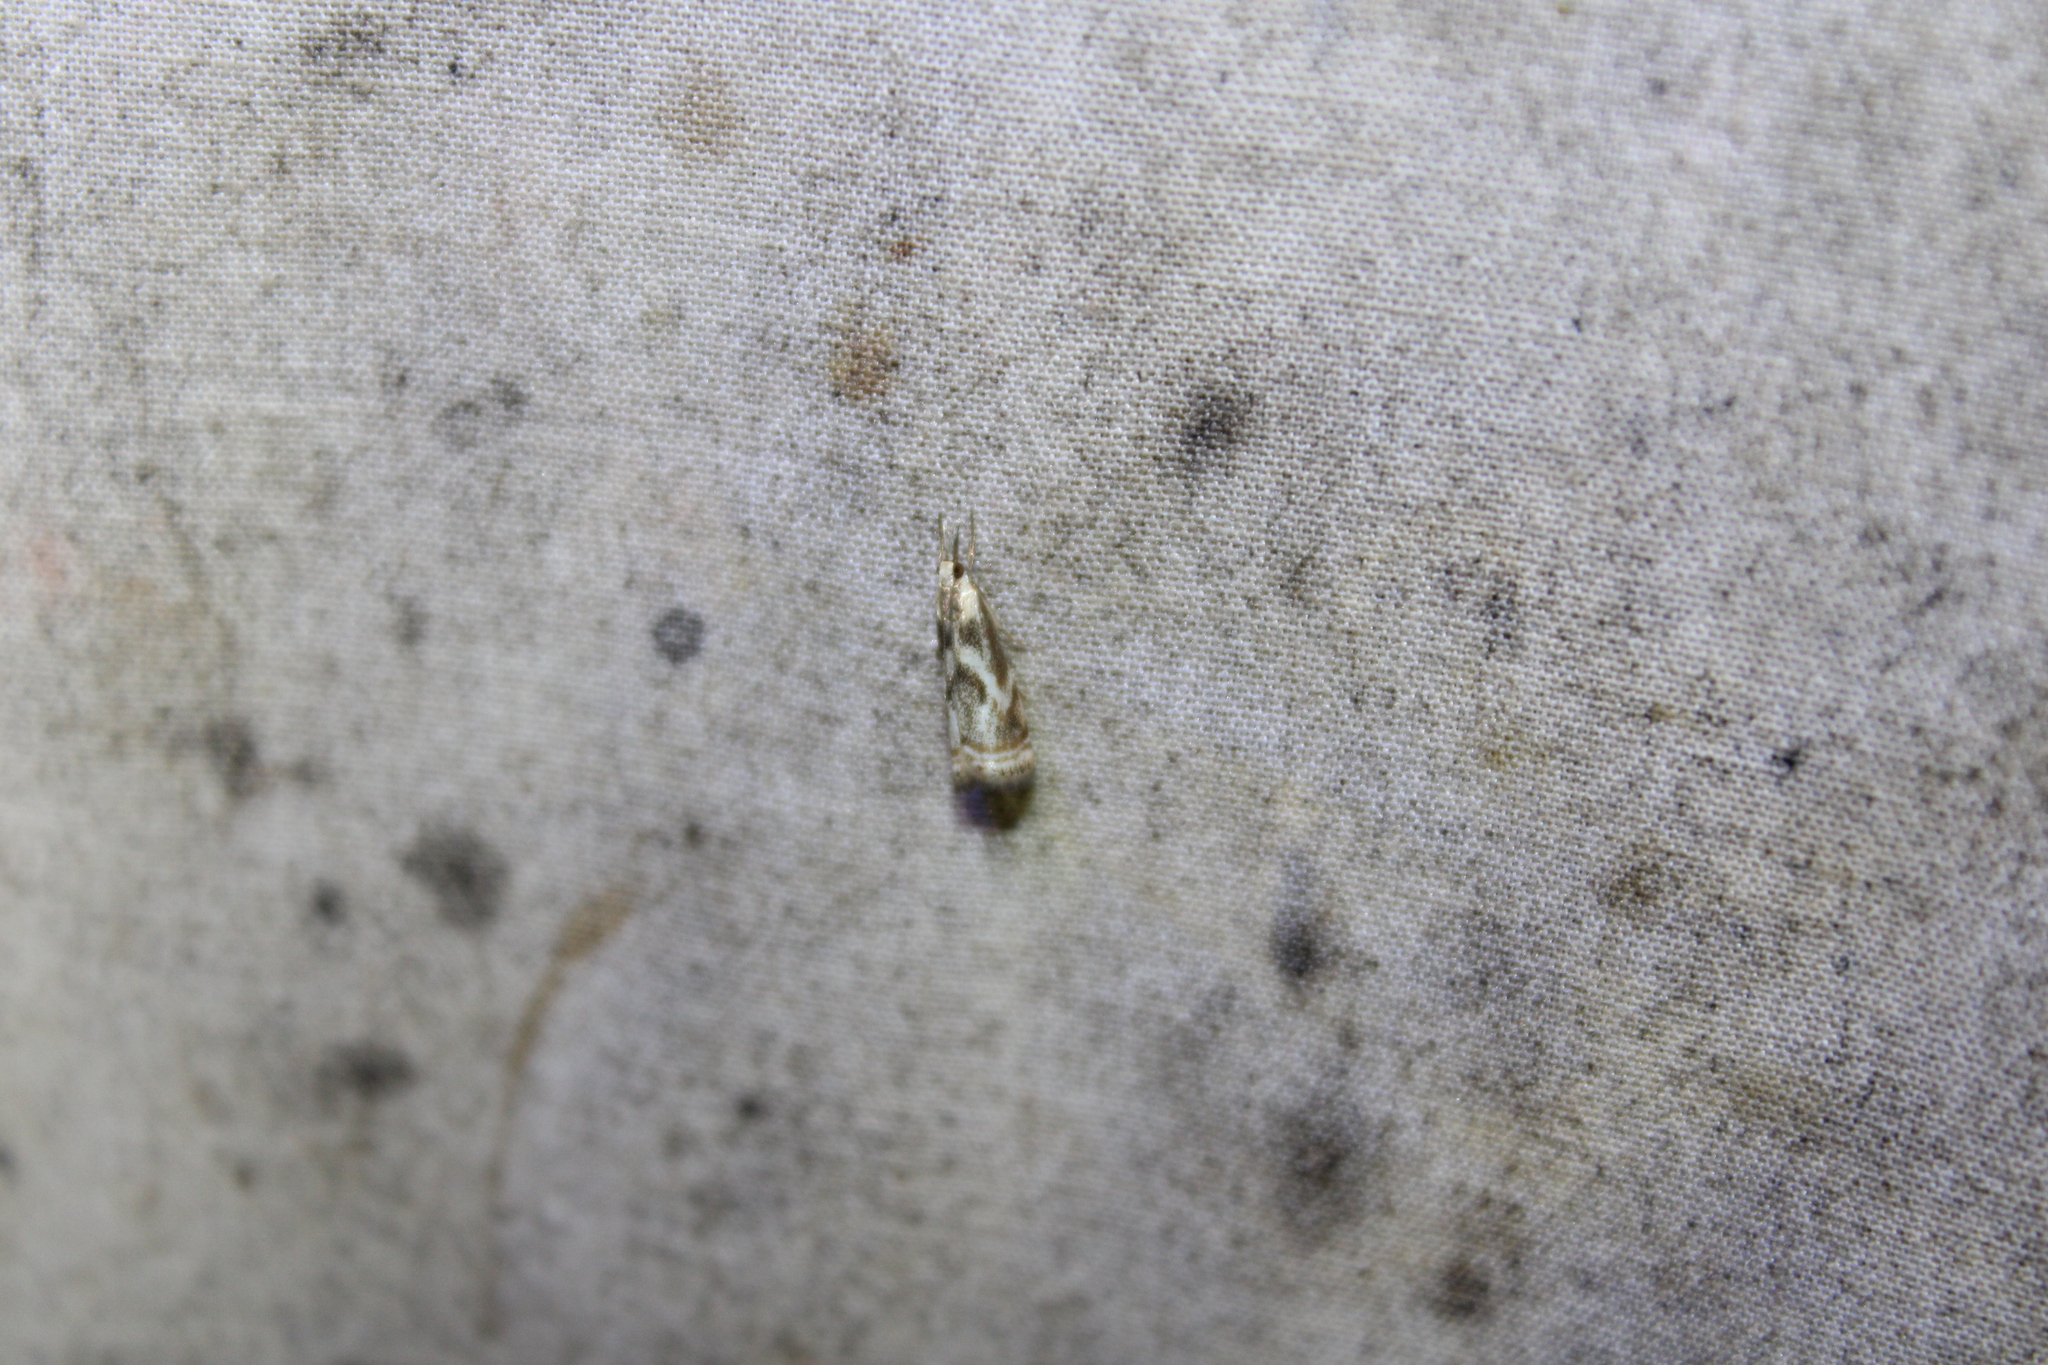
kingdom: Animalia
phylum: Arthropoda
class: Insecta
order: Lepidoptera
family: Crambidae
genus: Microcrambus
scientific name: Microcrambus elegans
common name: Elegant grass-veneer
